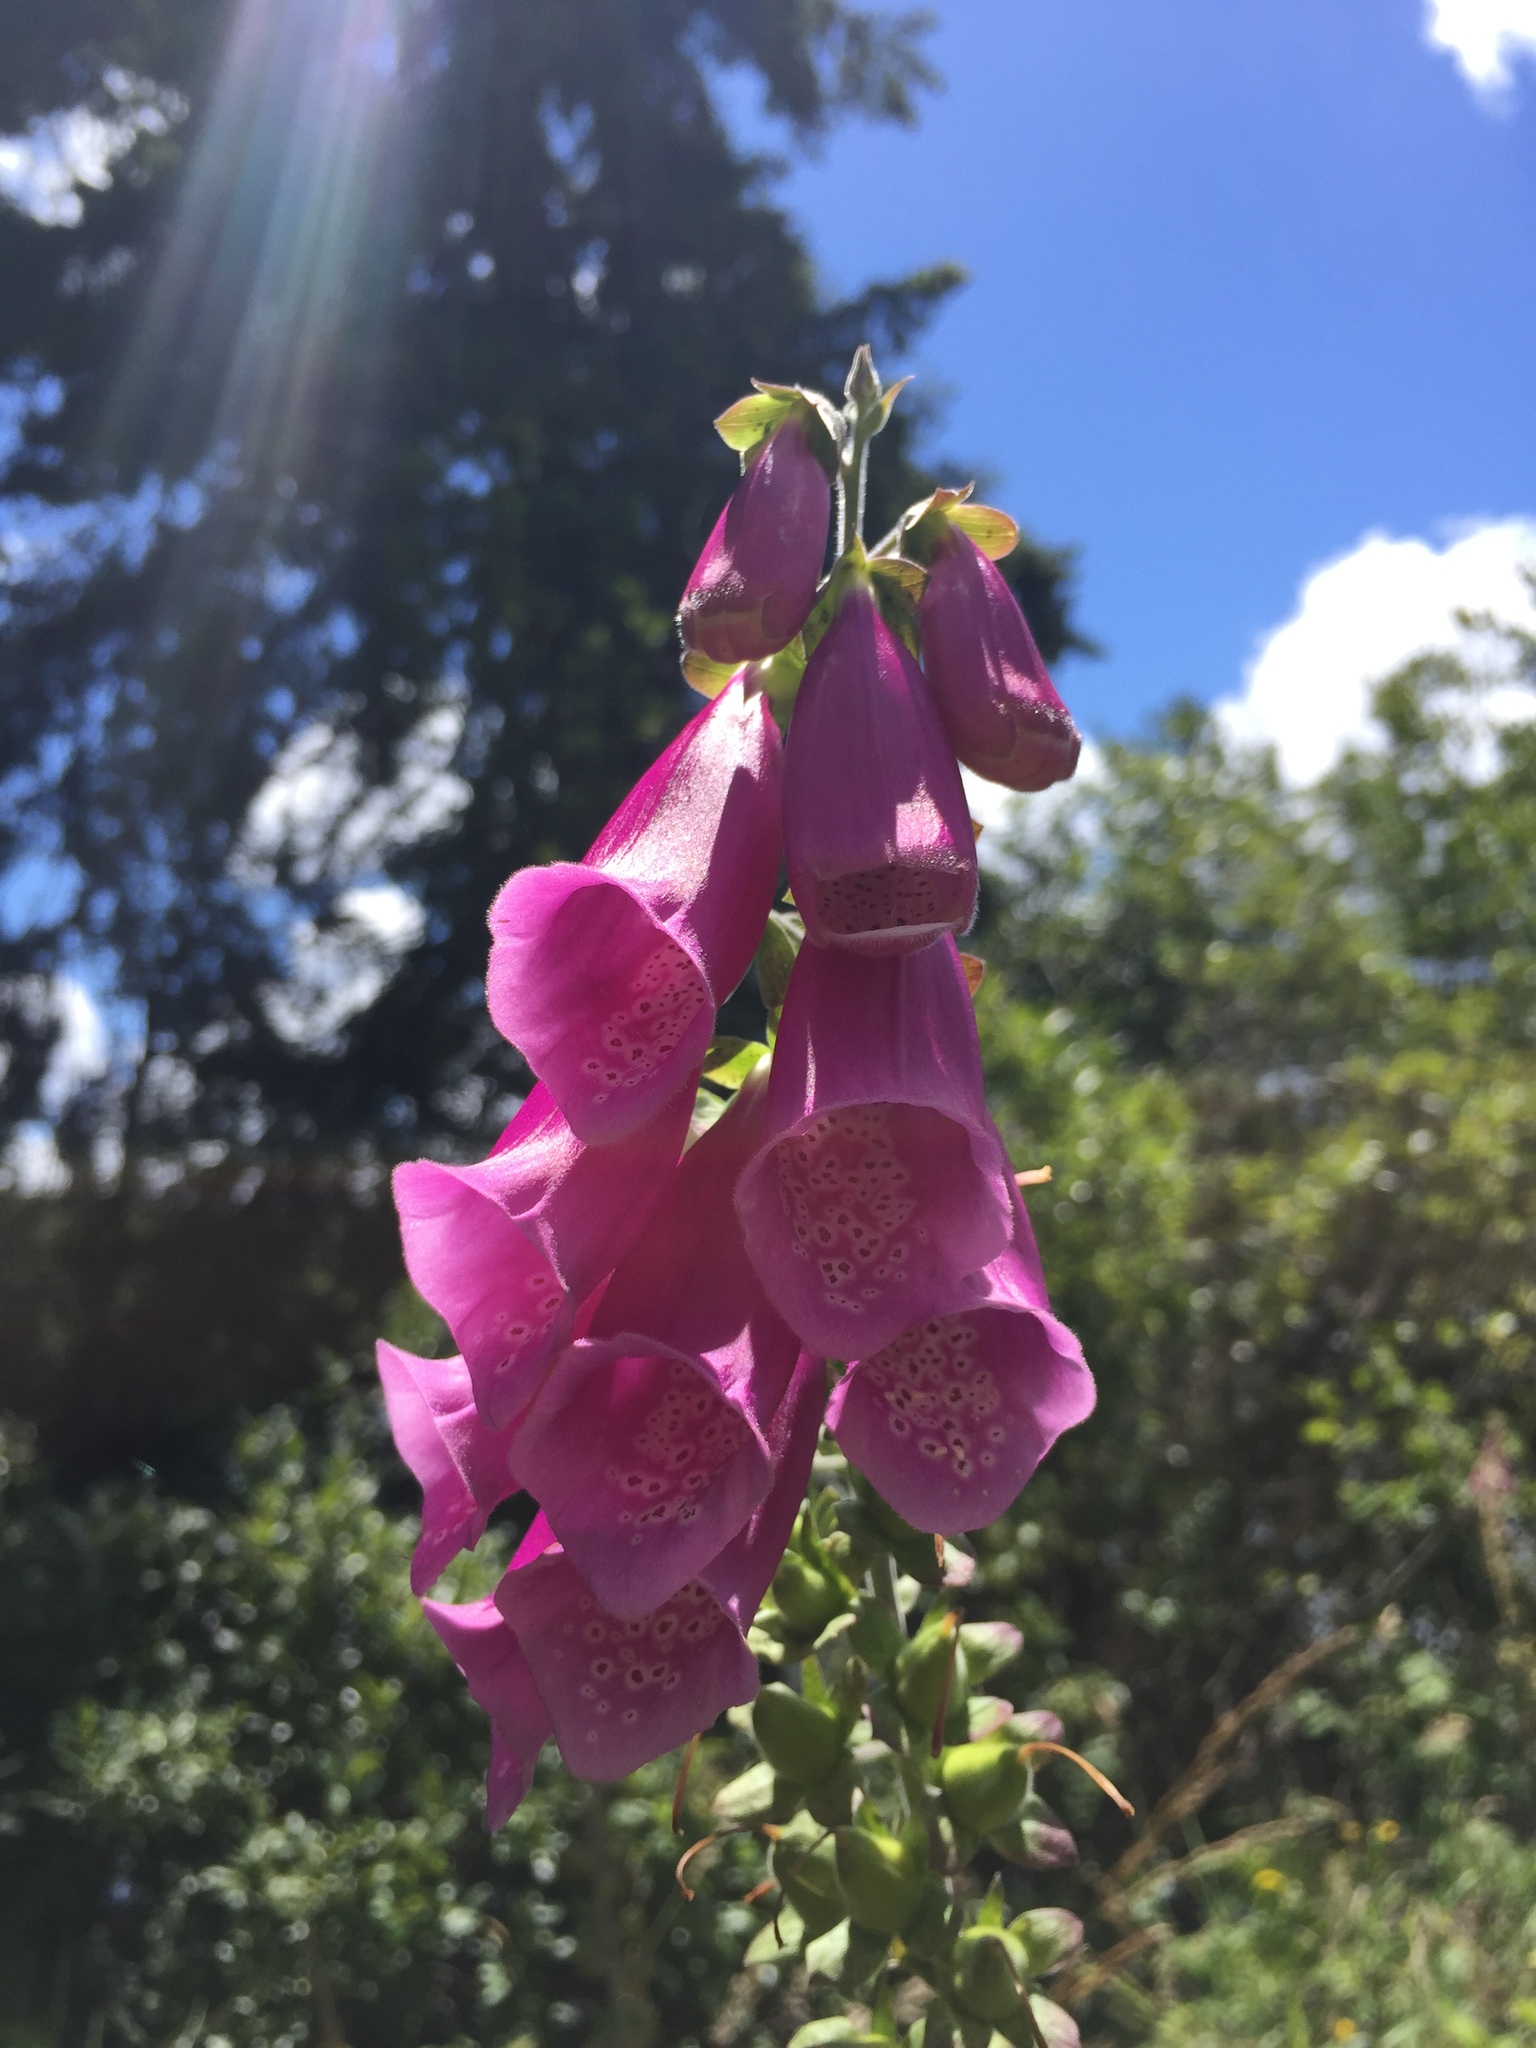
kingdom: Plantae
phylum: Tracheophyta
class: Magnoliopsida
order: Lamiales
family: Plantaginaceae
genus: Digitalis
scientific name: Digitalis purpurea
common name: Foxglove
